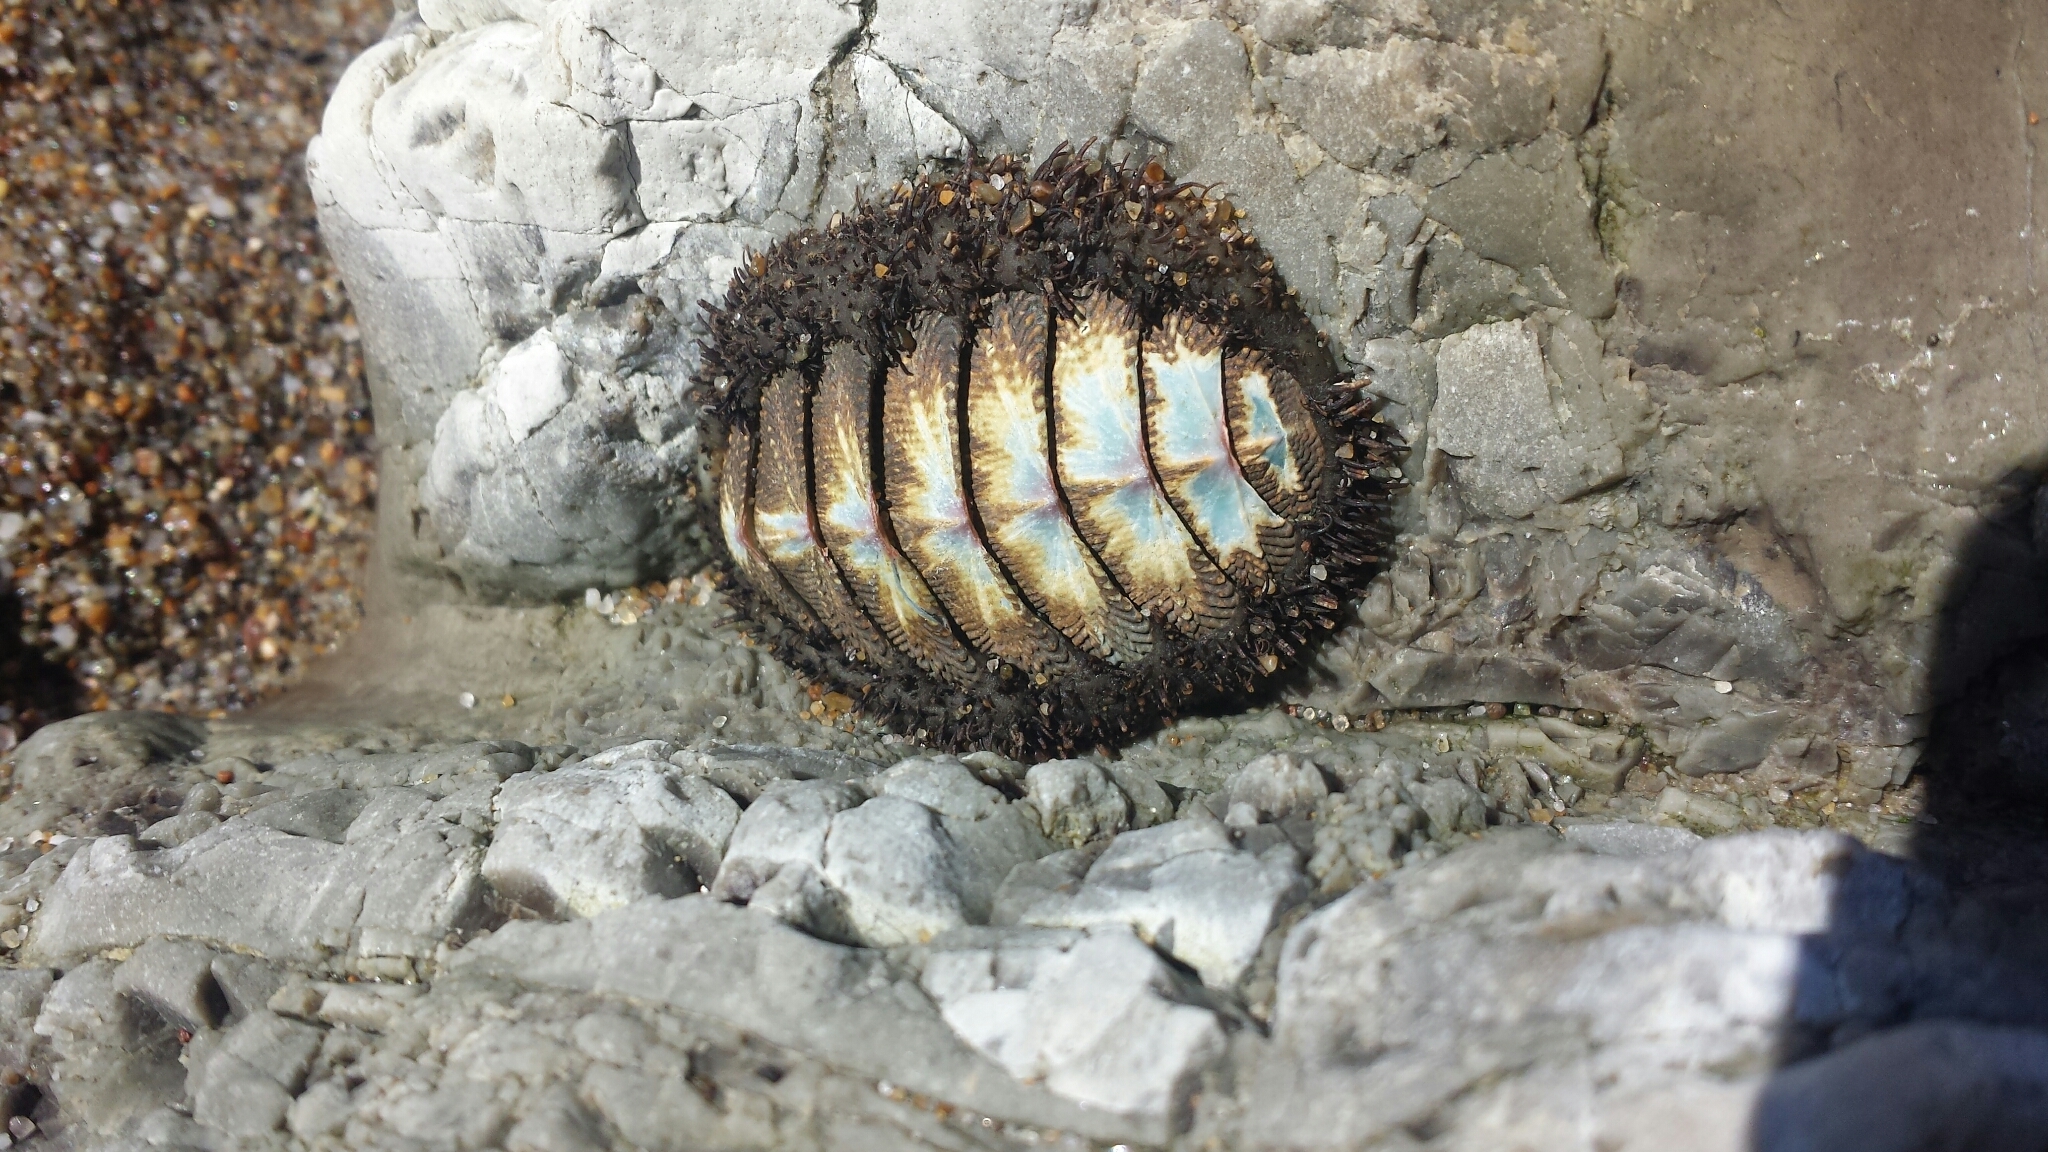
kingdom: Animalia
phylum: Mollusca
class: Polyplacophora
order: Chitonida
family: Mopaliidae
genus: Mopalia
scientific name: Mopalia muscosa
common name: Mossy chiton
